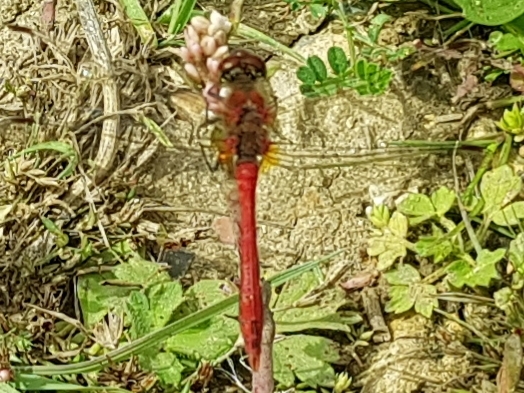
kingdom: Animalia
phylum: Arthropoda
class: Insecta
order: Odonata
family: Libellulidae
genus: Sympetrum
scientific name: Sympetrum sanguineum
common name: Ruddy darter
